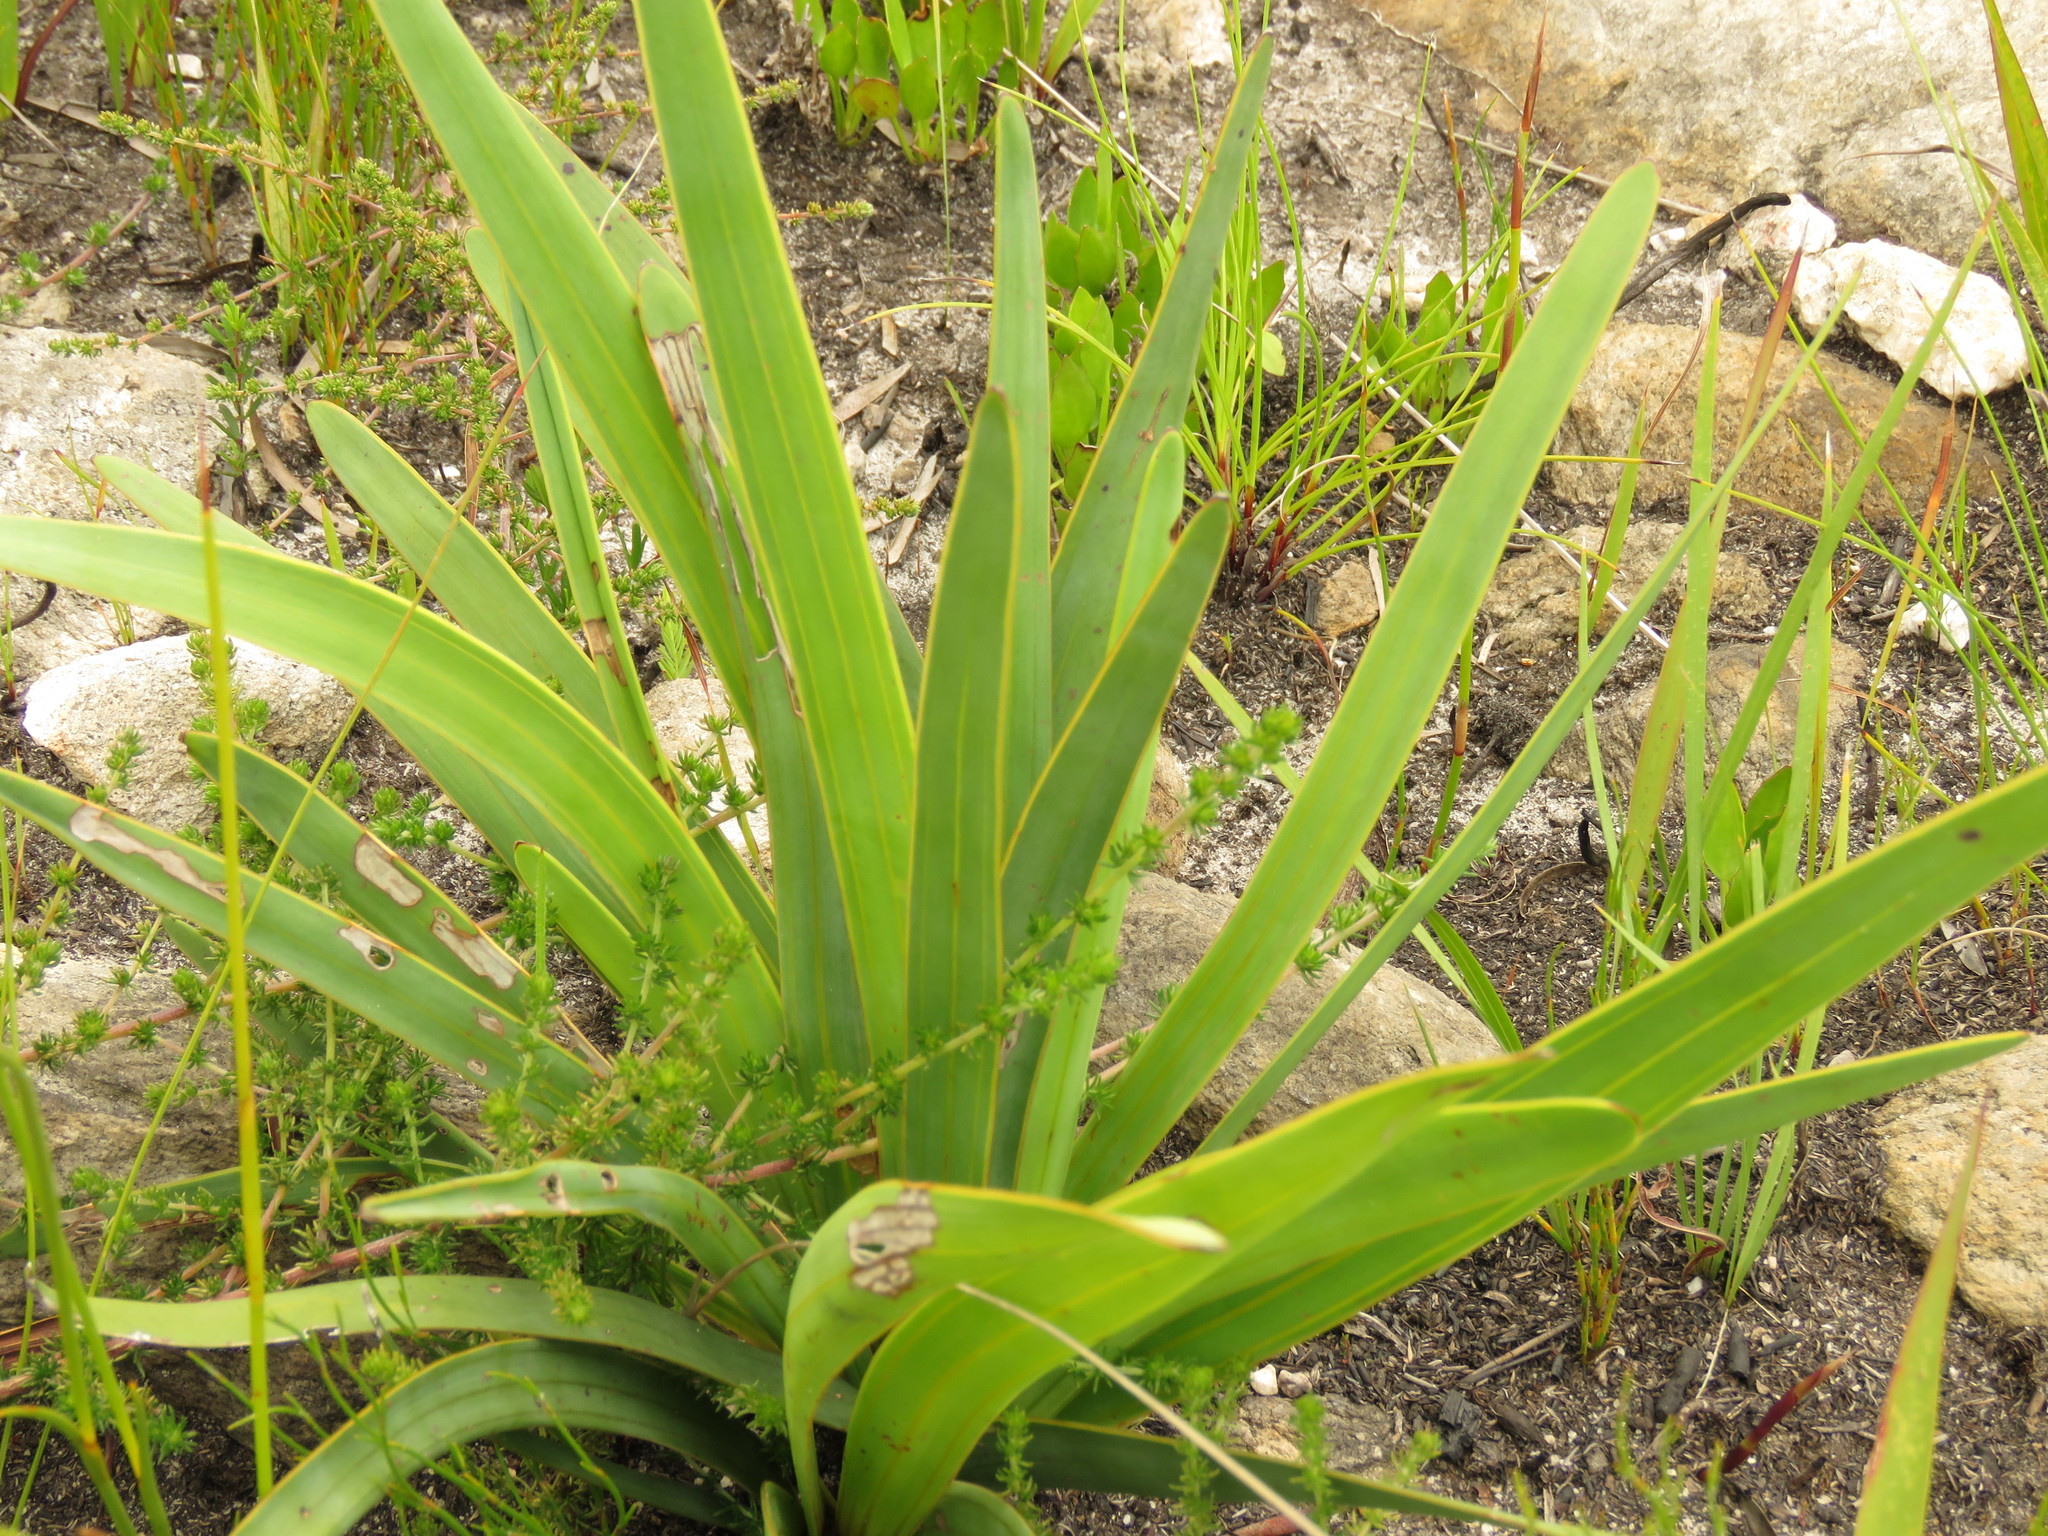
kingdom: Plantae
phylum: Tracheophyta
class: Magnoliopsida
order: Asterales
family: Asteraceae
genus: Corymbium
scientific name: Corymbium glabrum
